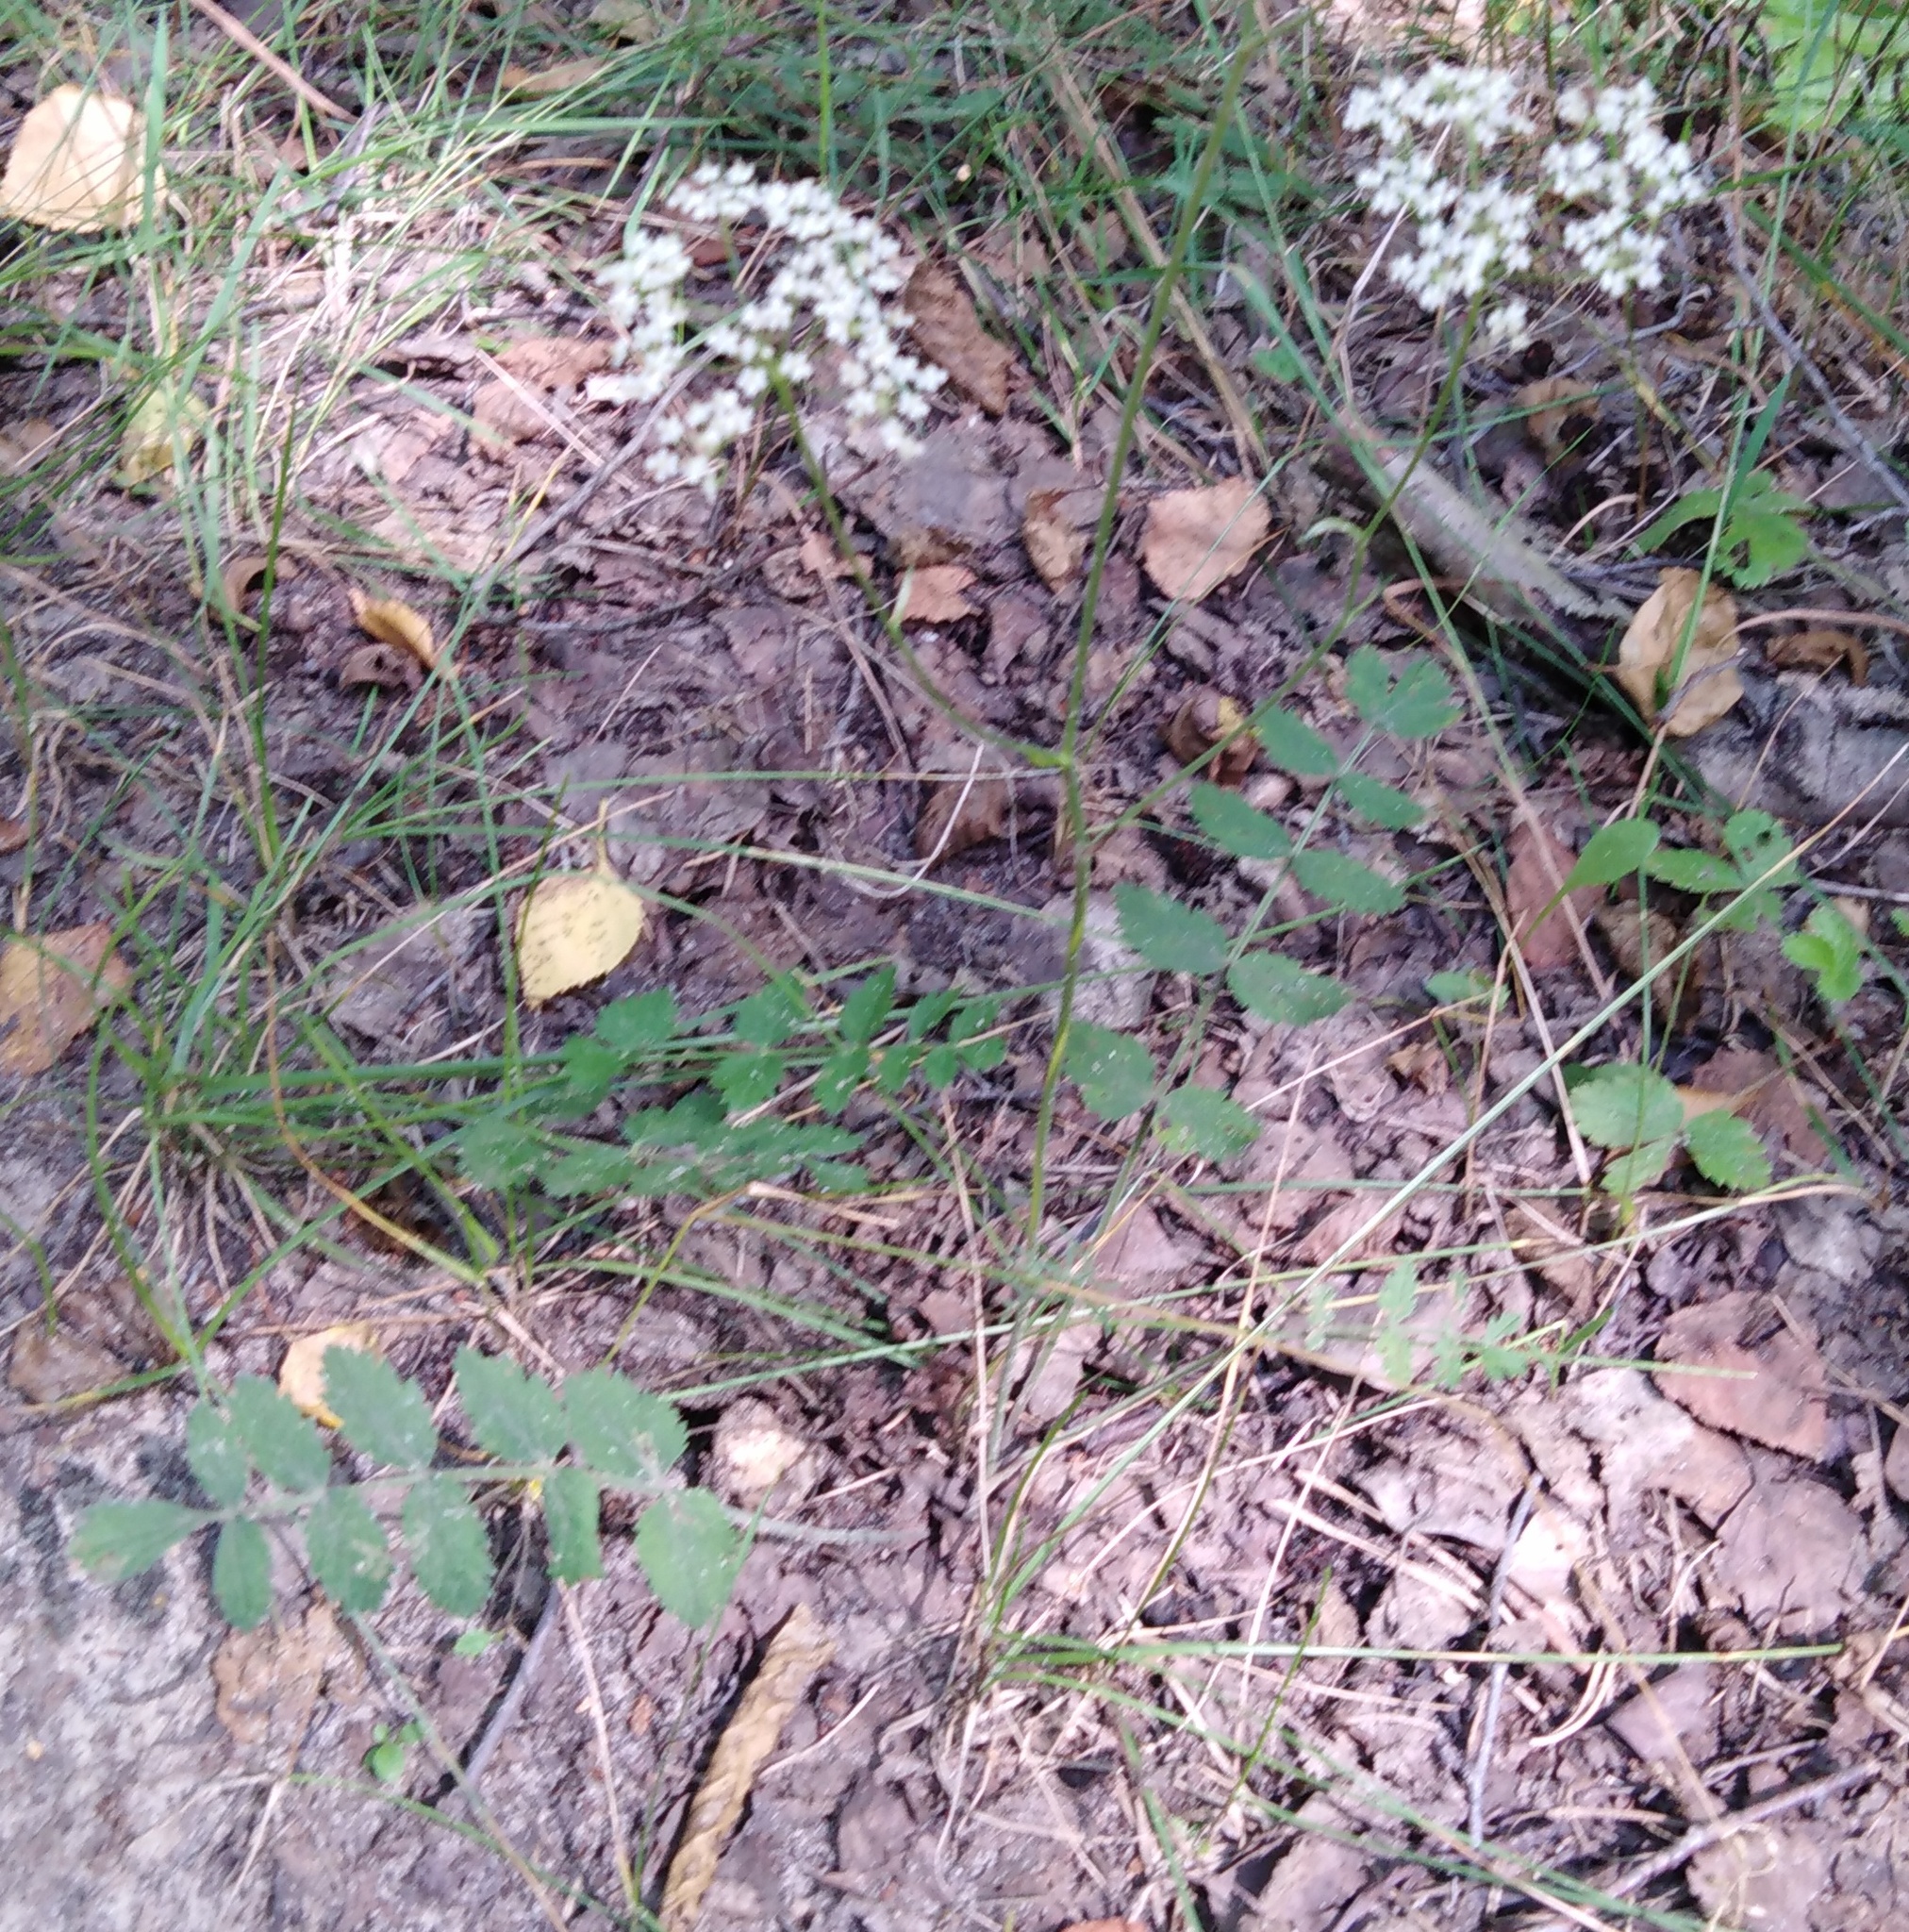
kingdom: Plantae
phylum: Tracheophyta
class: Magnoliopsida
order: Apiales
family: Apiaceae
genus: Pimpinella
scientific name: Pimpinella saxifraga
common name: Burnet-saxifrage
